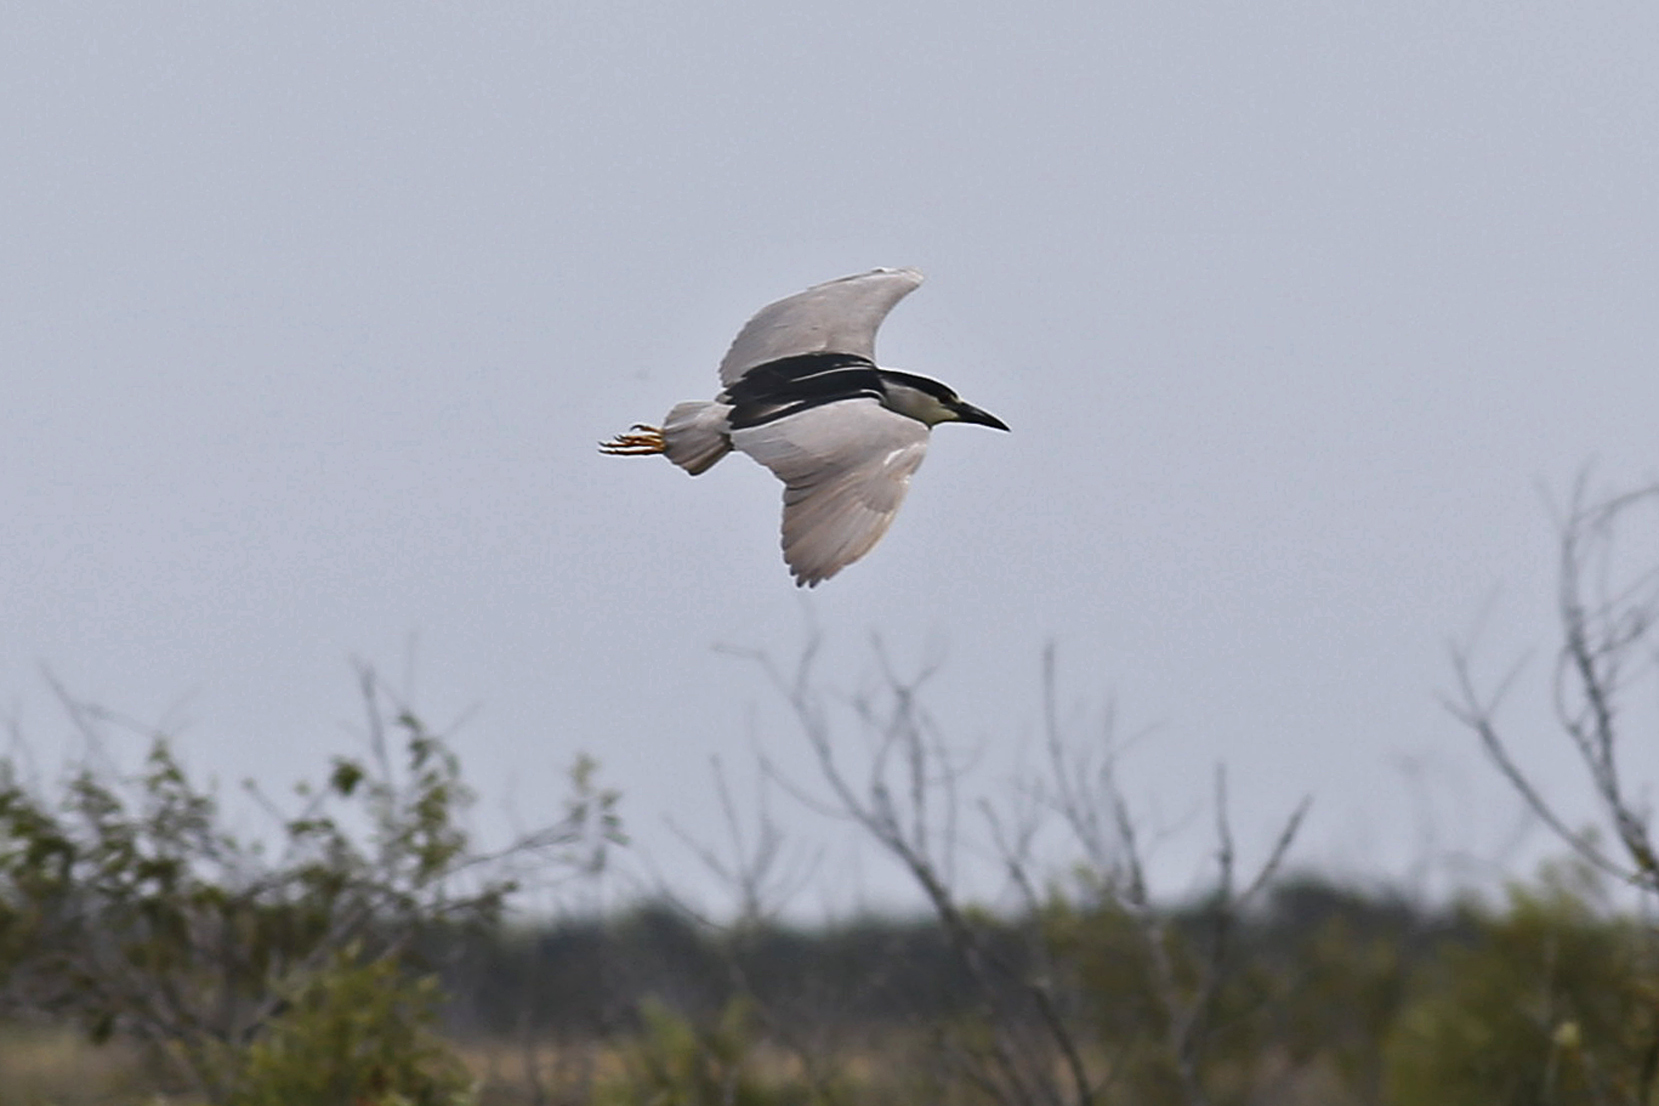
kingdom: Animalia
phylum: Chordata
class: Aves
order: Pelecaniformes
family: Ardeidae
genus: Nycticorax
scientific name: Nycticorax nycticorax
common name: Black-crowned night heron
